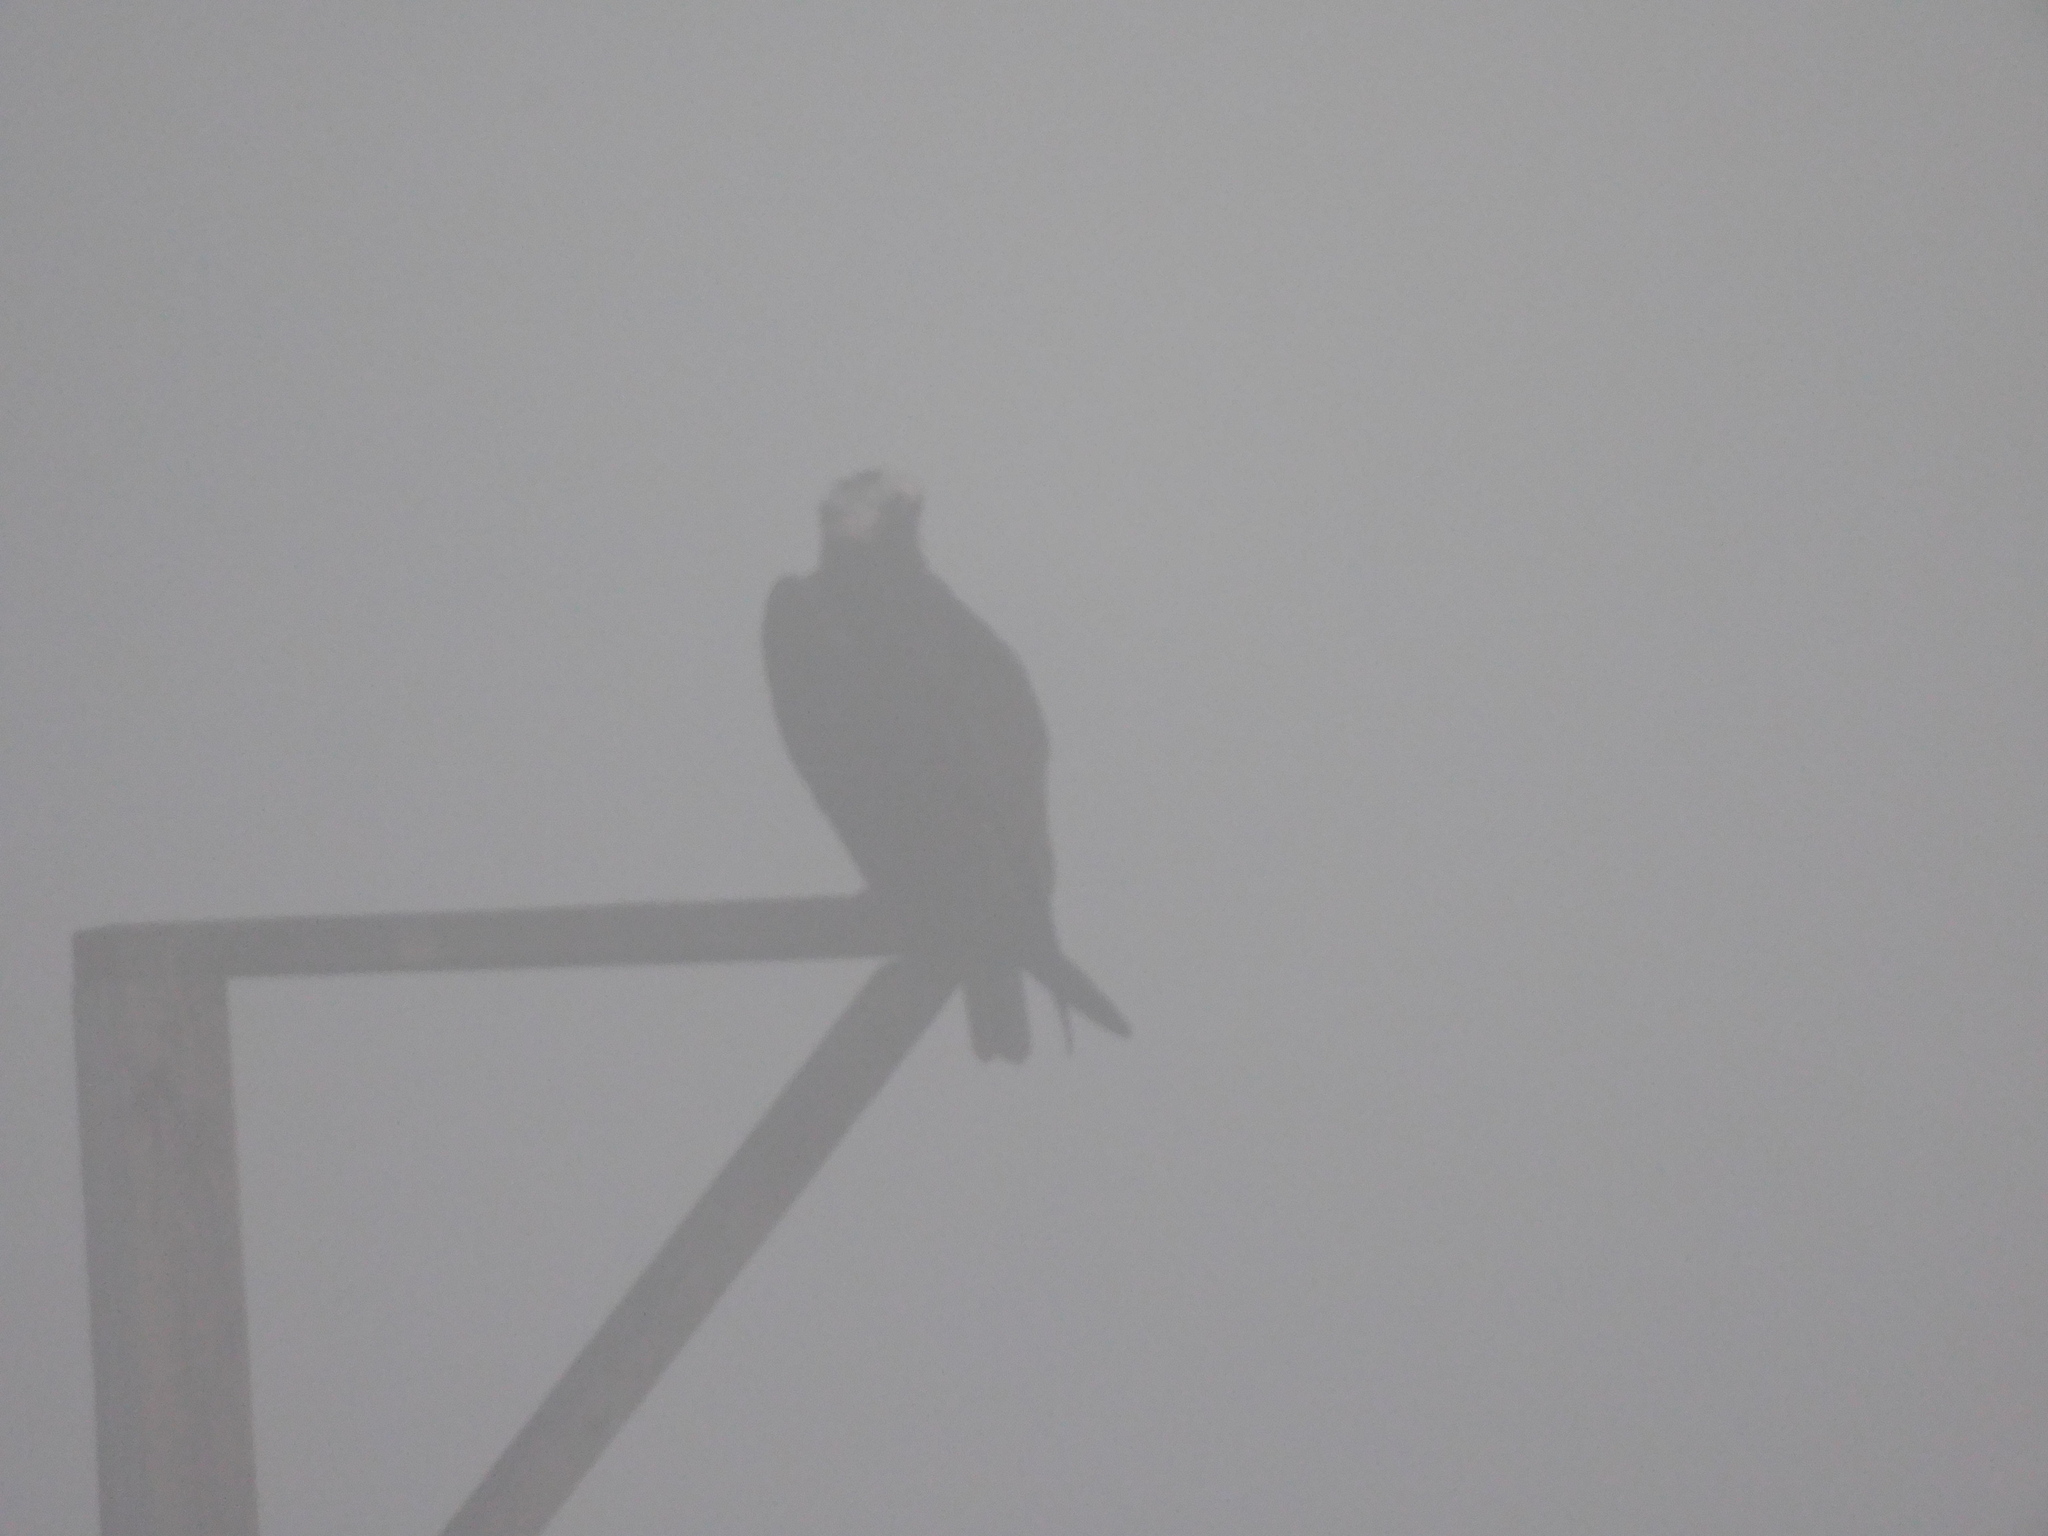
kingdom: Animalia
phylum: Chordata
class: Aves
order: Accipitriformes
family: Pandionidae
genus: Pandion
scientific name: Pandion haliaetus
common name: Osprey
